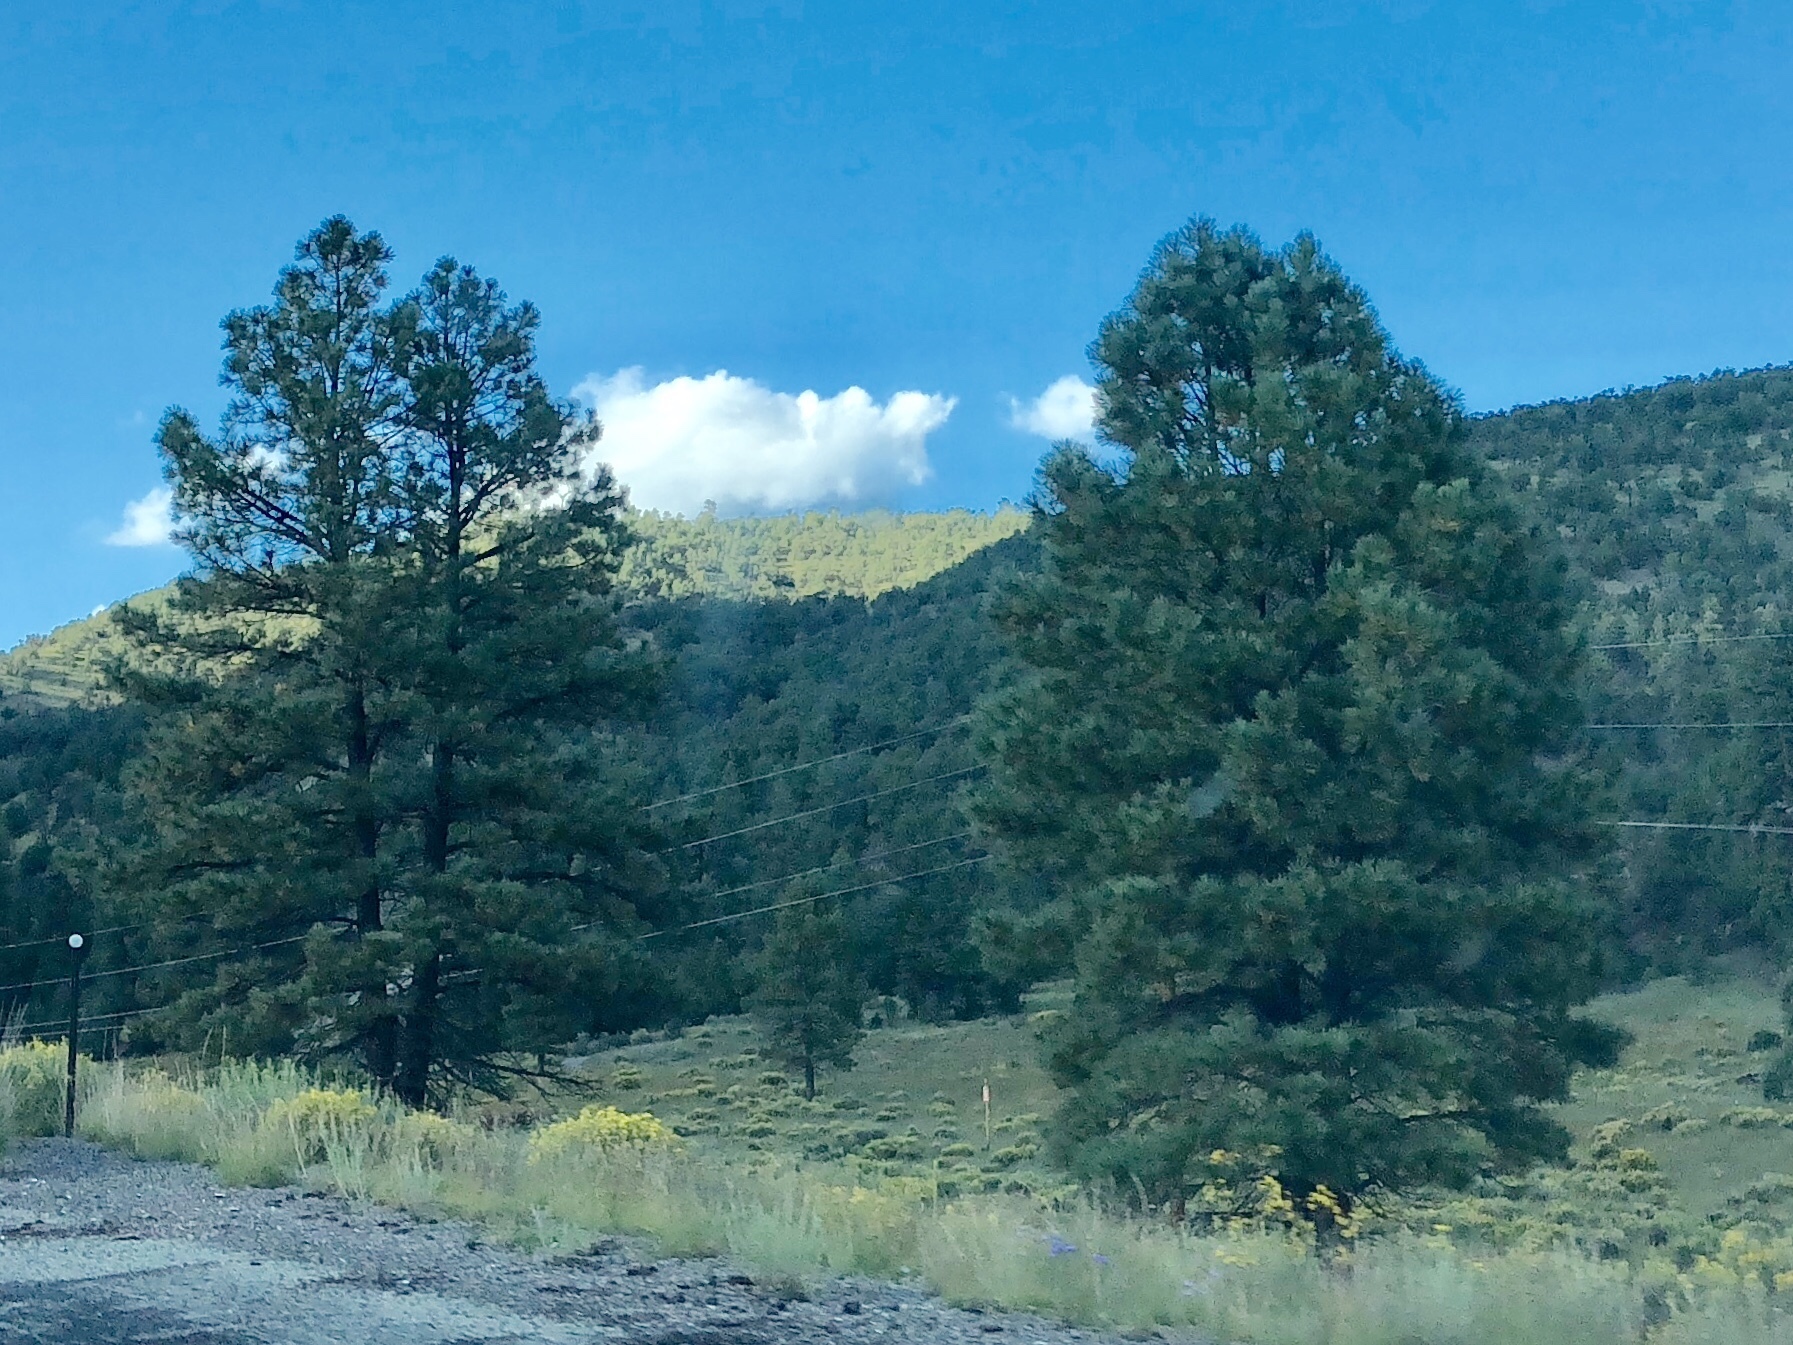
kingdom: Plantae
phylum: Tracheophyta
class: Pinopsida
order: Pinales
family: Pinaceae
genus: Pinus
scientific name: Pinus ponderosa
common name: Western yellow-pine
